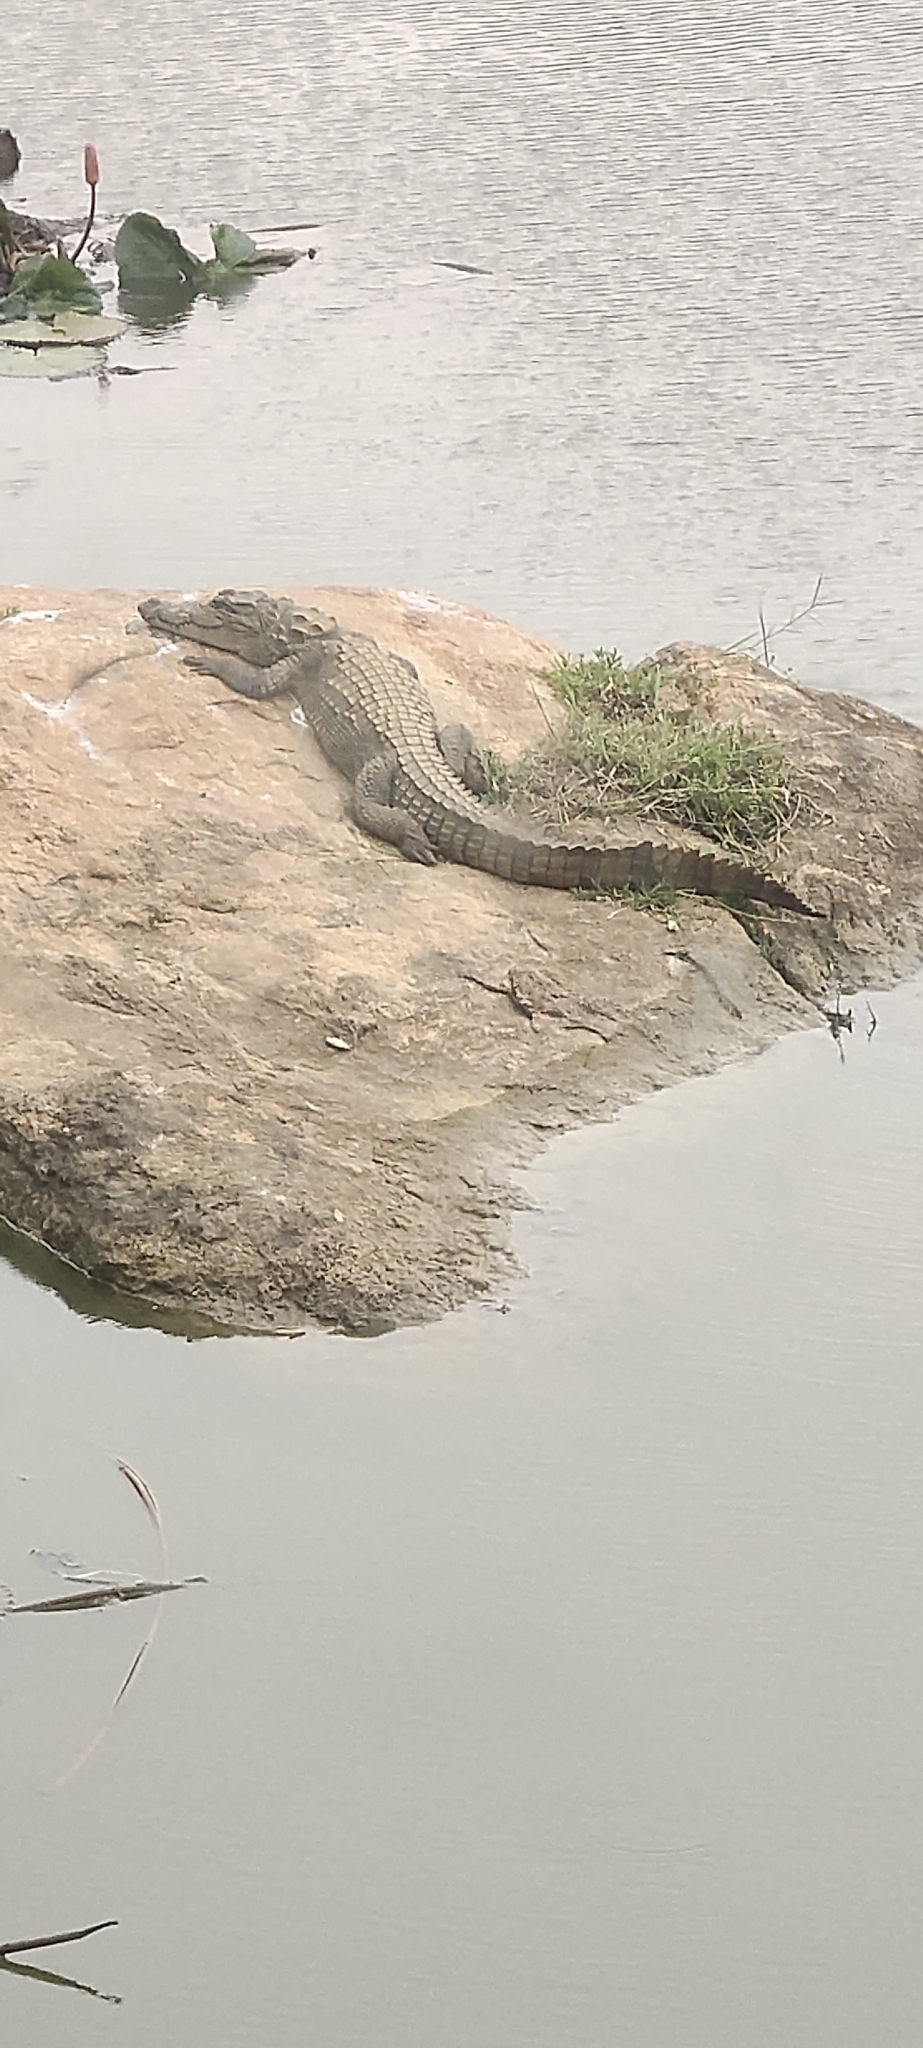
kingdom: Animalia
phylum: Chordata
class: Crocodylia
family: Crocodylidae
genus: Crocodylus
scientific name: Crocodylus palustris
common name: Mugger crocodile
